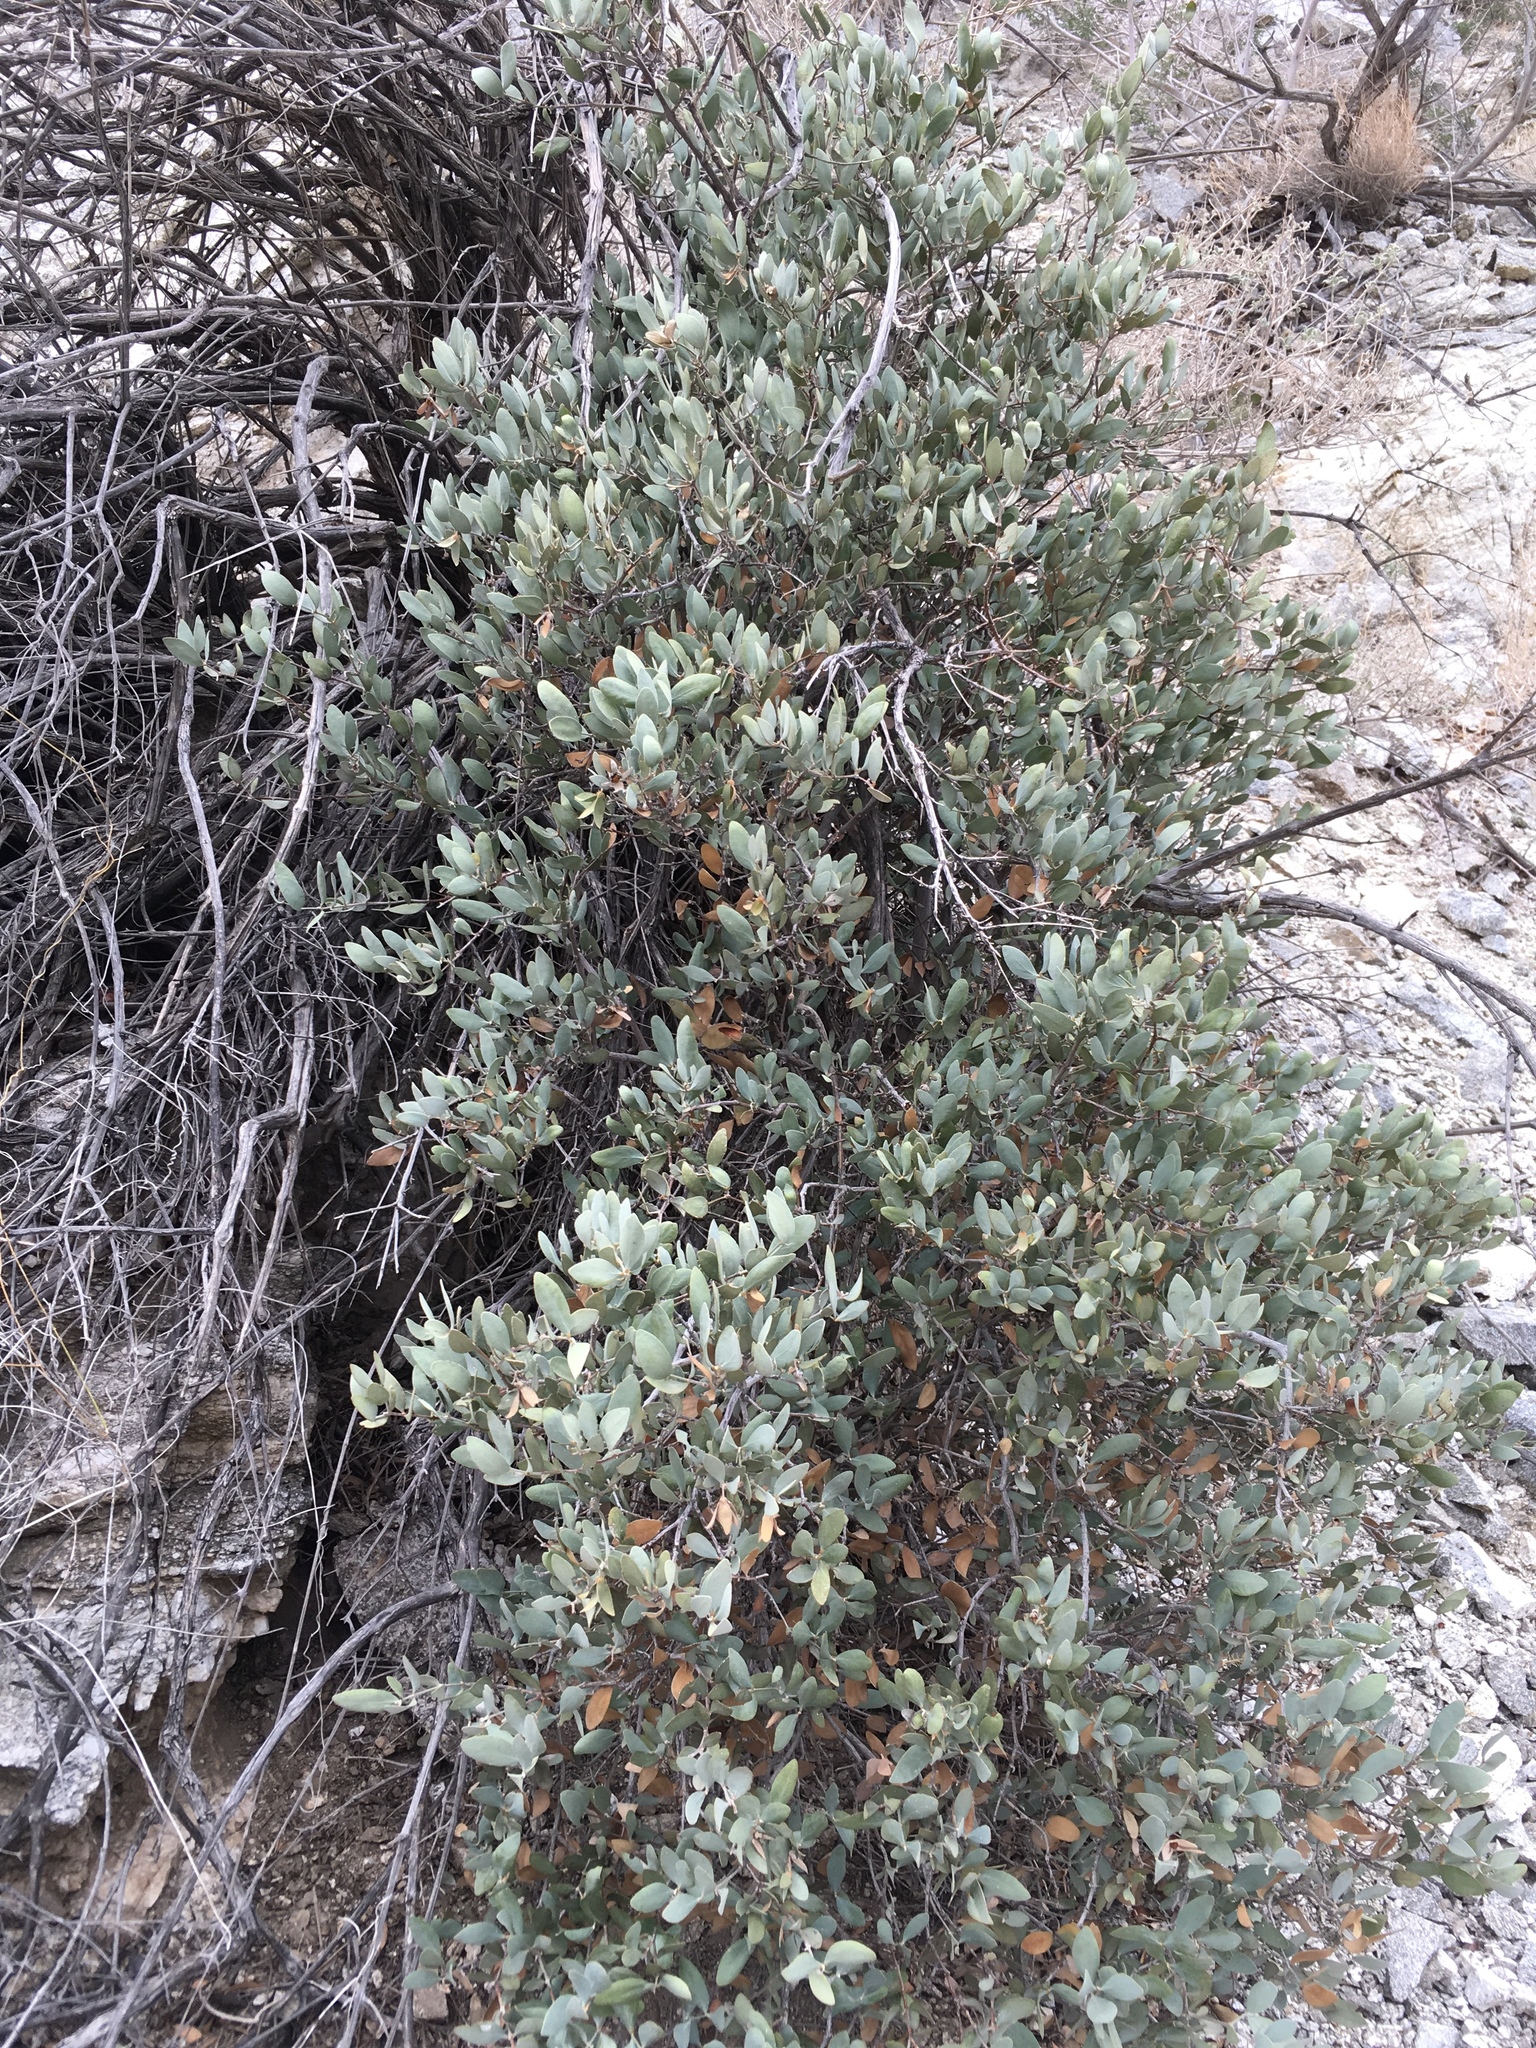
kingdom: Plantae
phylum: Tracheophyta
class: Magnoliopsida
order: Caryophyllales
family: Simmondsiaceae
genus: Simmondsia
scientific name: Simmondsia chinensis
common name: Jojoba
